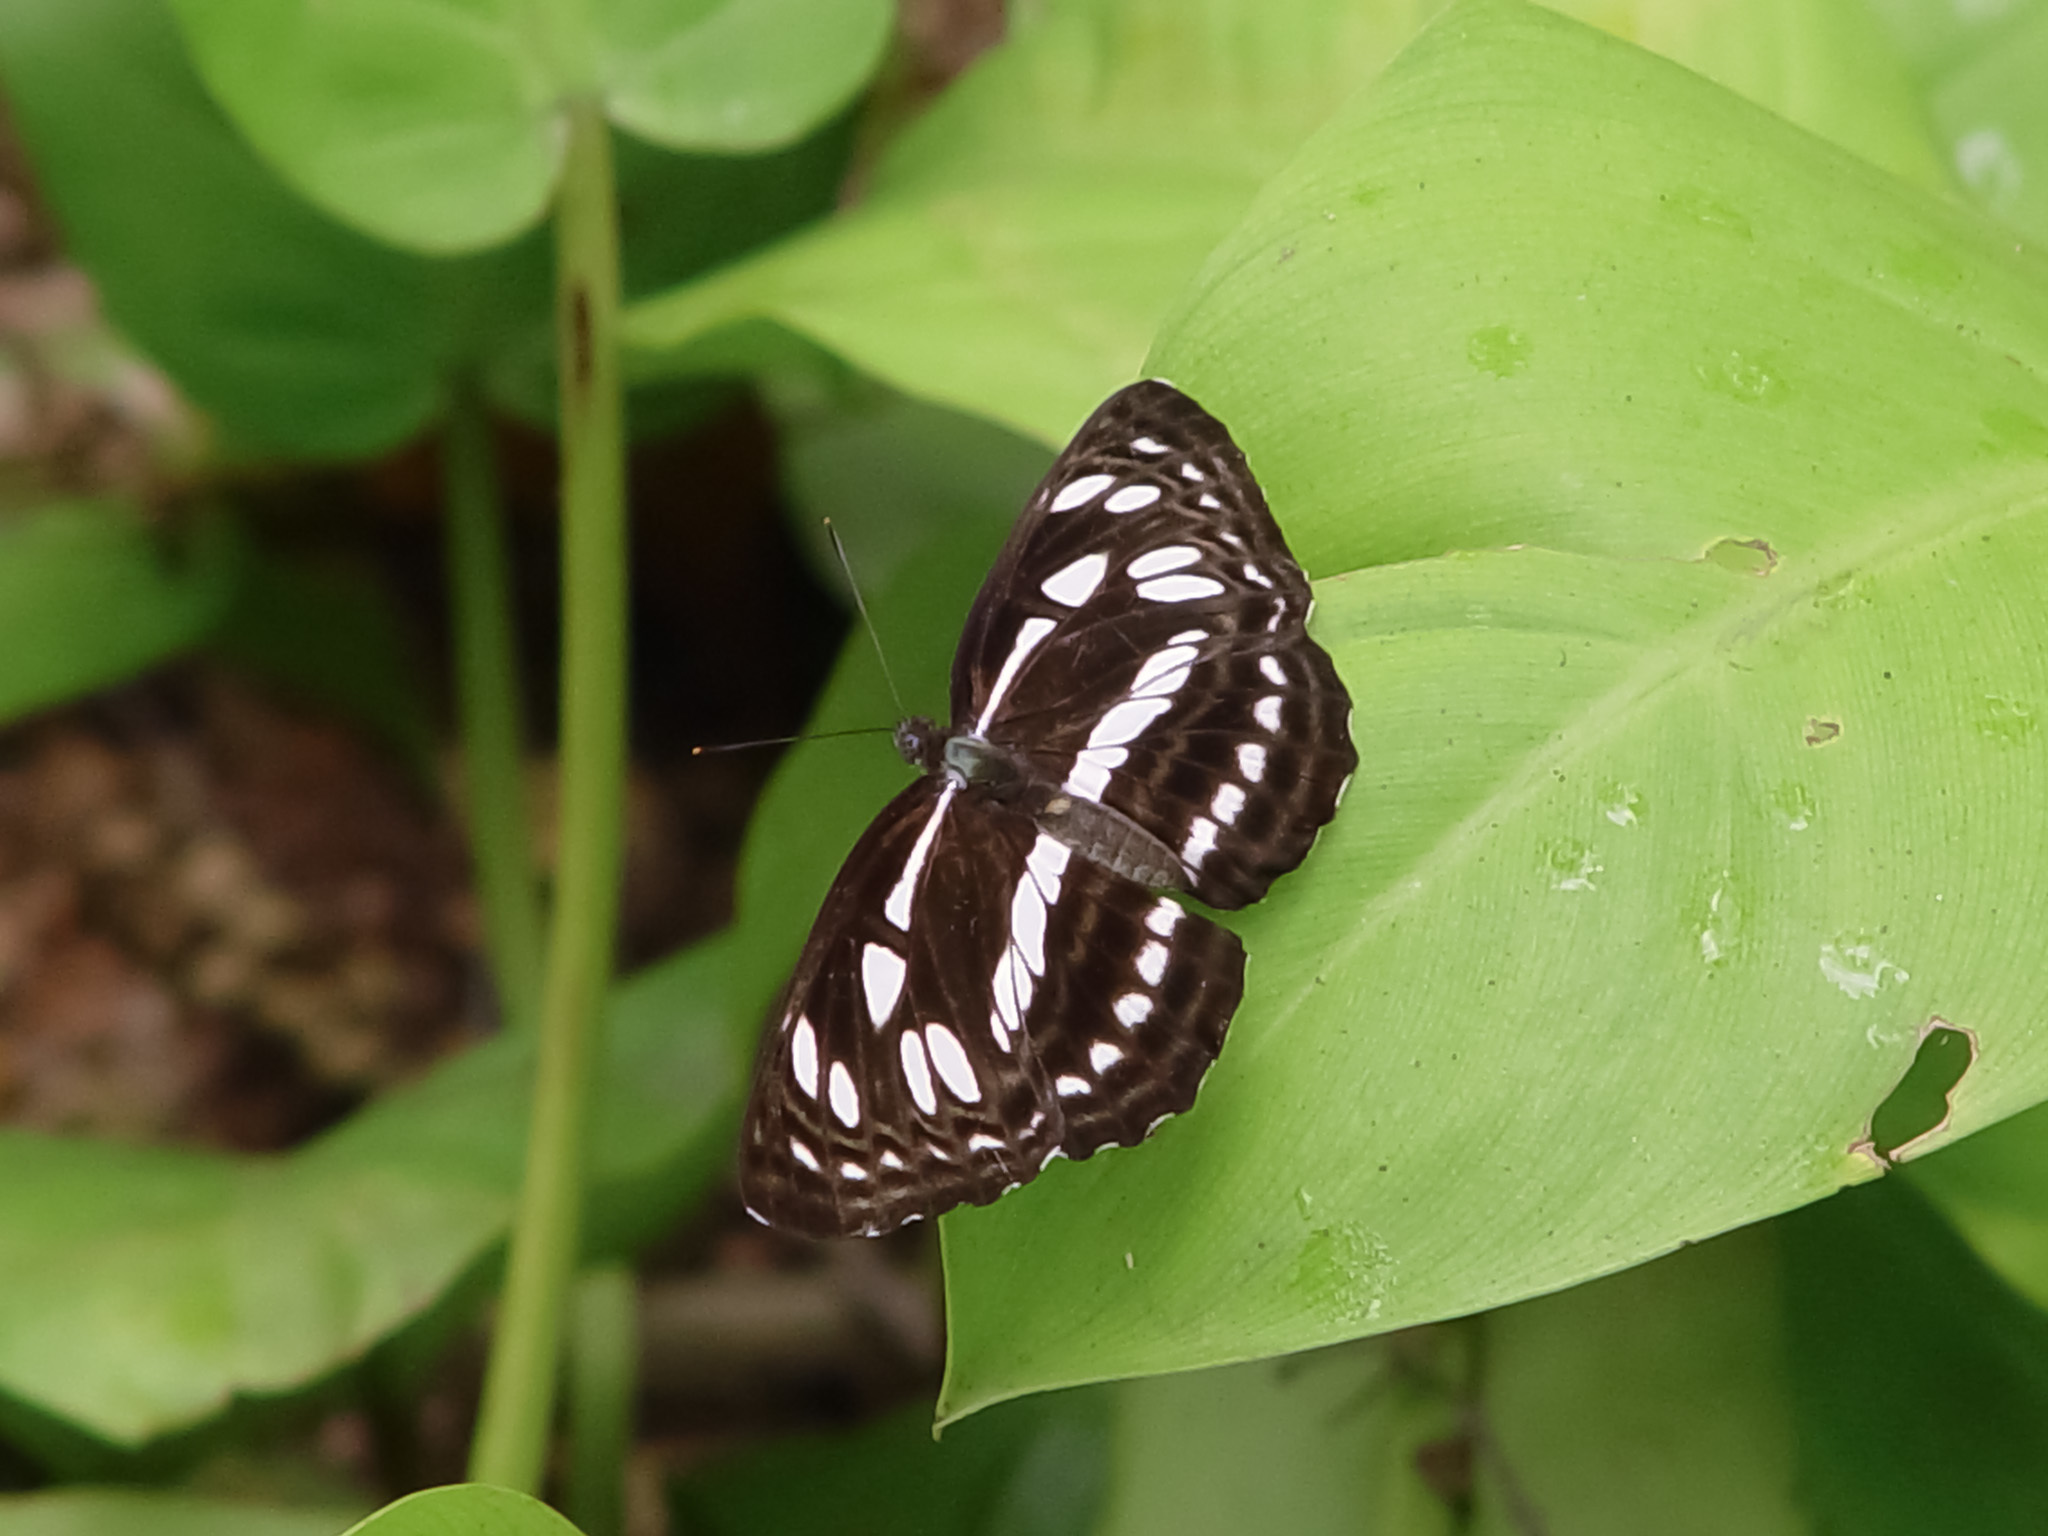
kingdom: Animalia
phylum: Arthropoda
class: Insecta
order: Lepidoptera
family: Nymphalidae
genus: Phaedyma
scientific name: Phaedyma columella
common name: Short banded sailer
